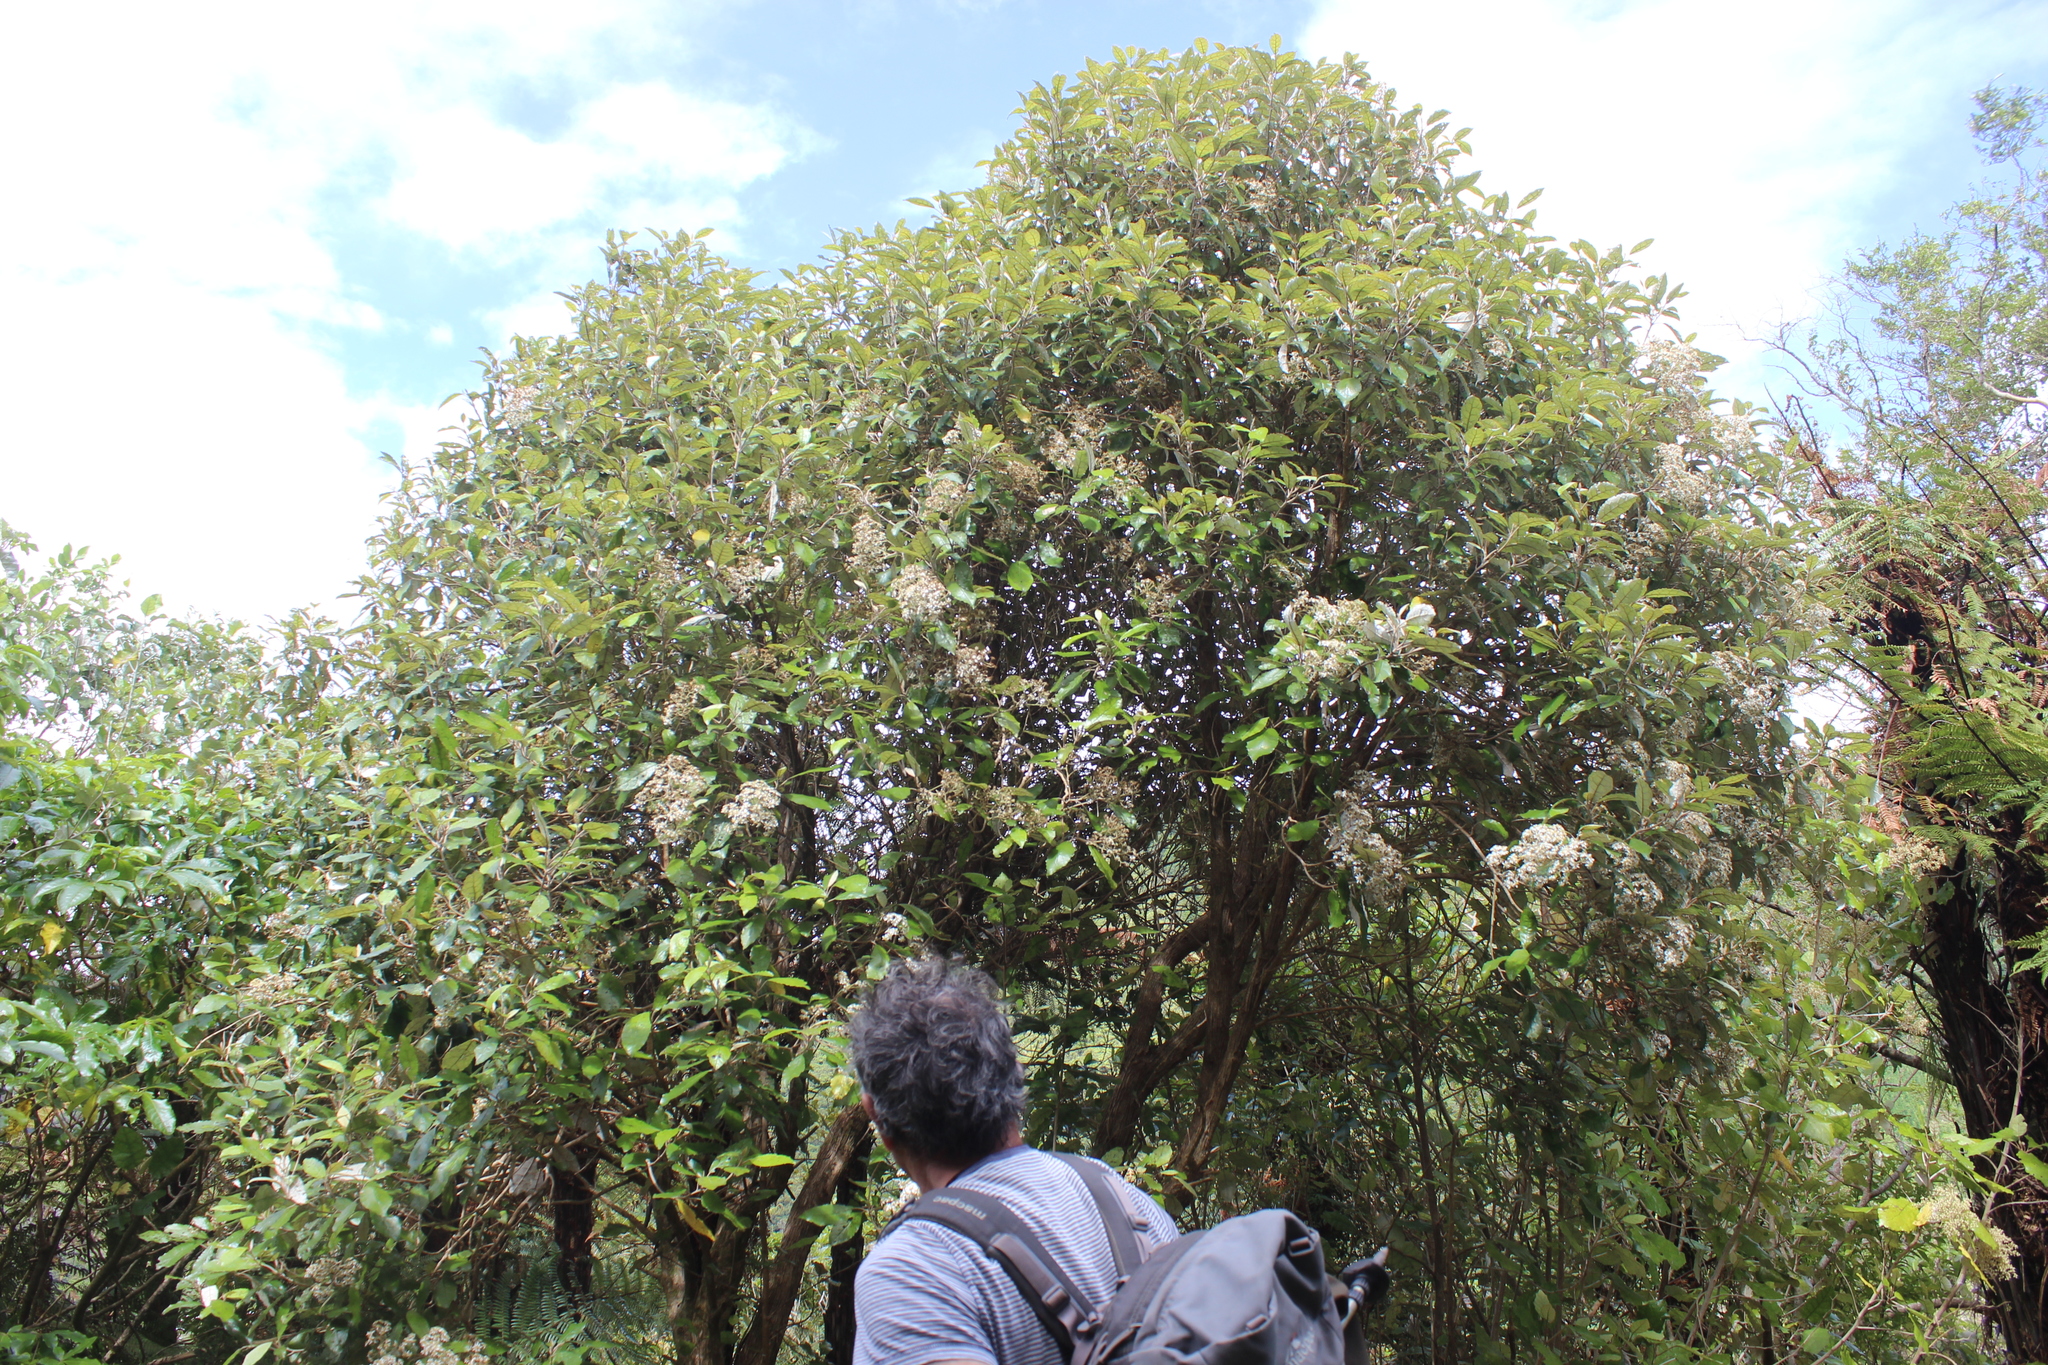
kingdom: Plantae
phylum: Tracheophyta
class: Magnoliopsida
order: Asterales
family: Asteraceae
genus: Olearia
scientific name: Olearia rani
